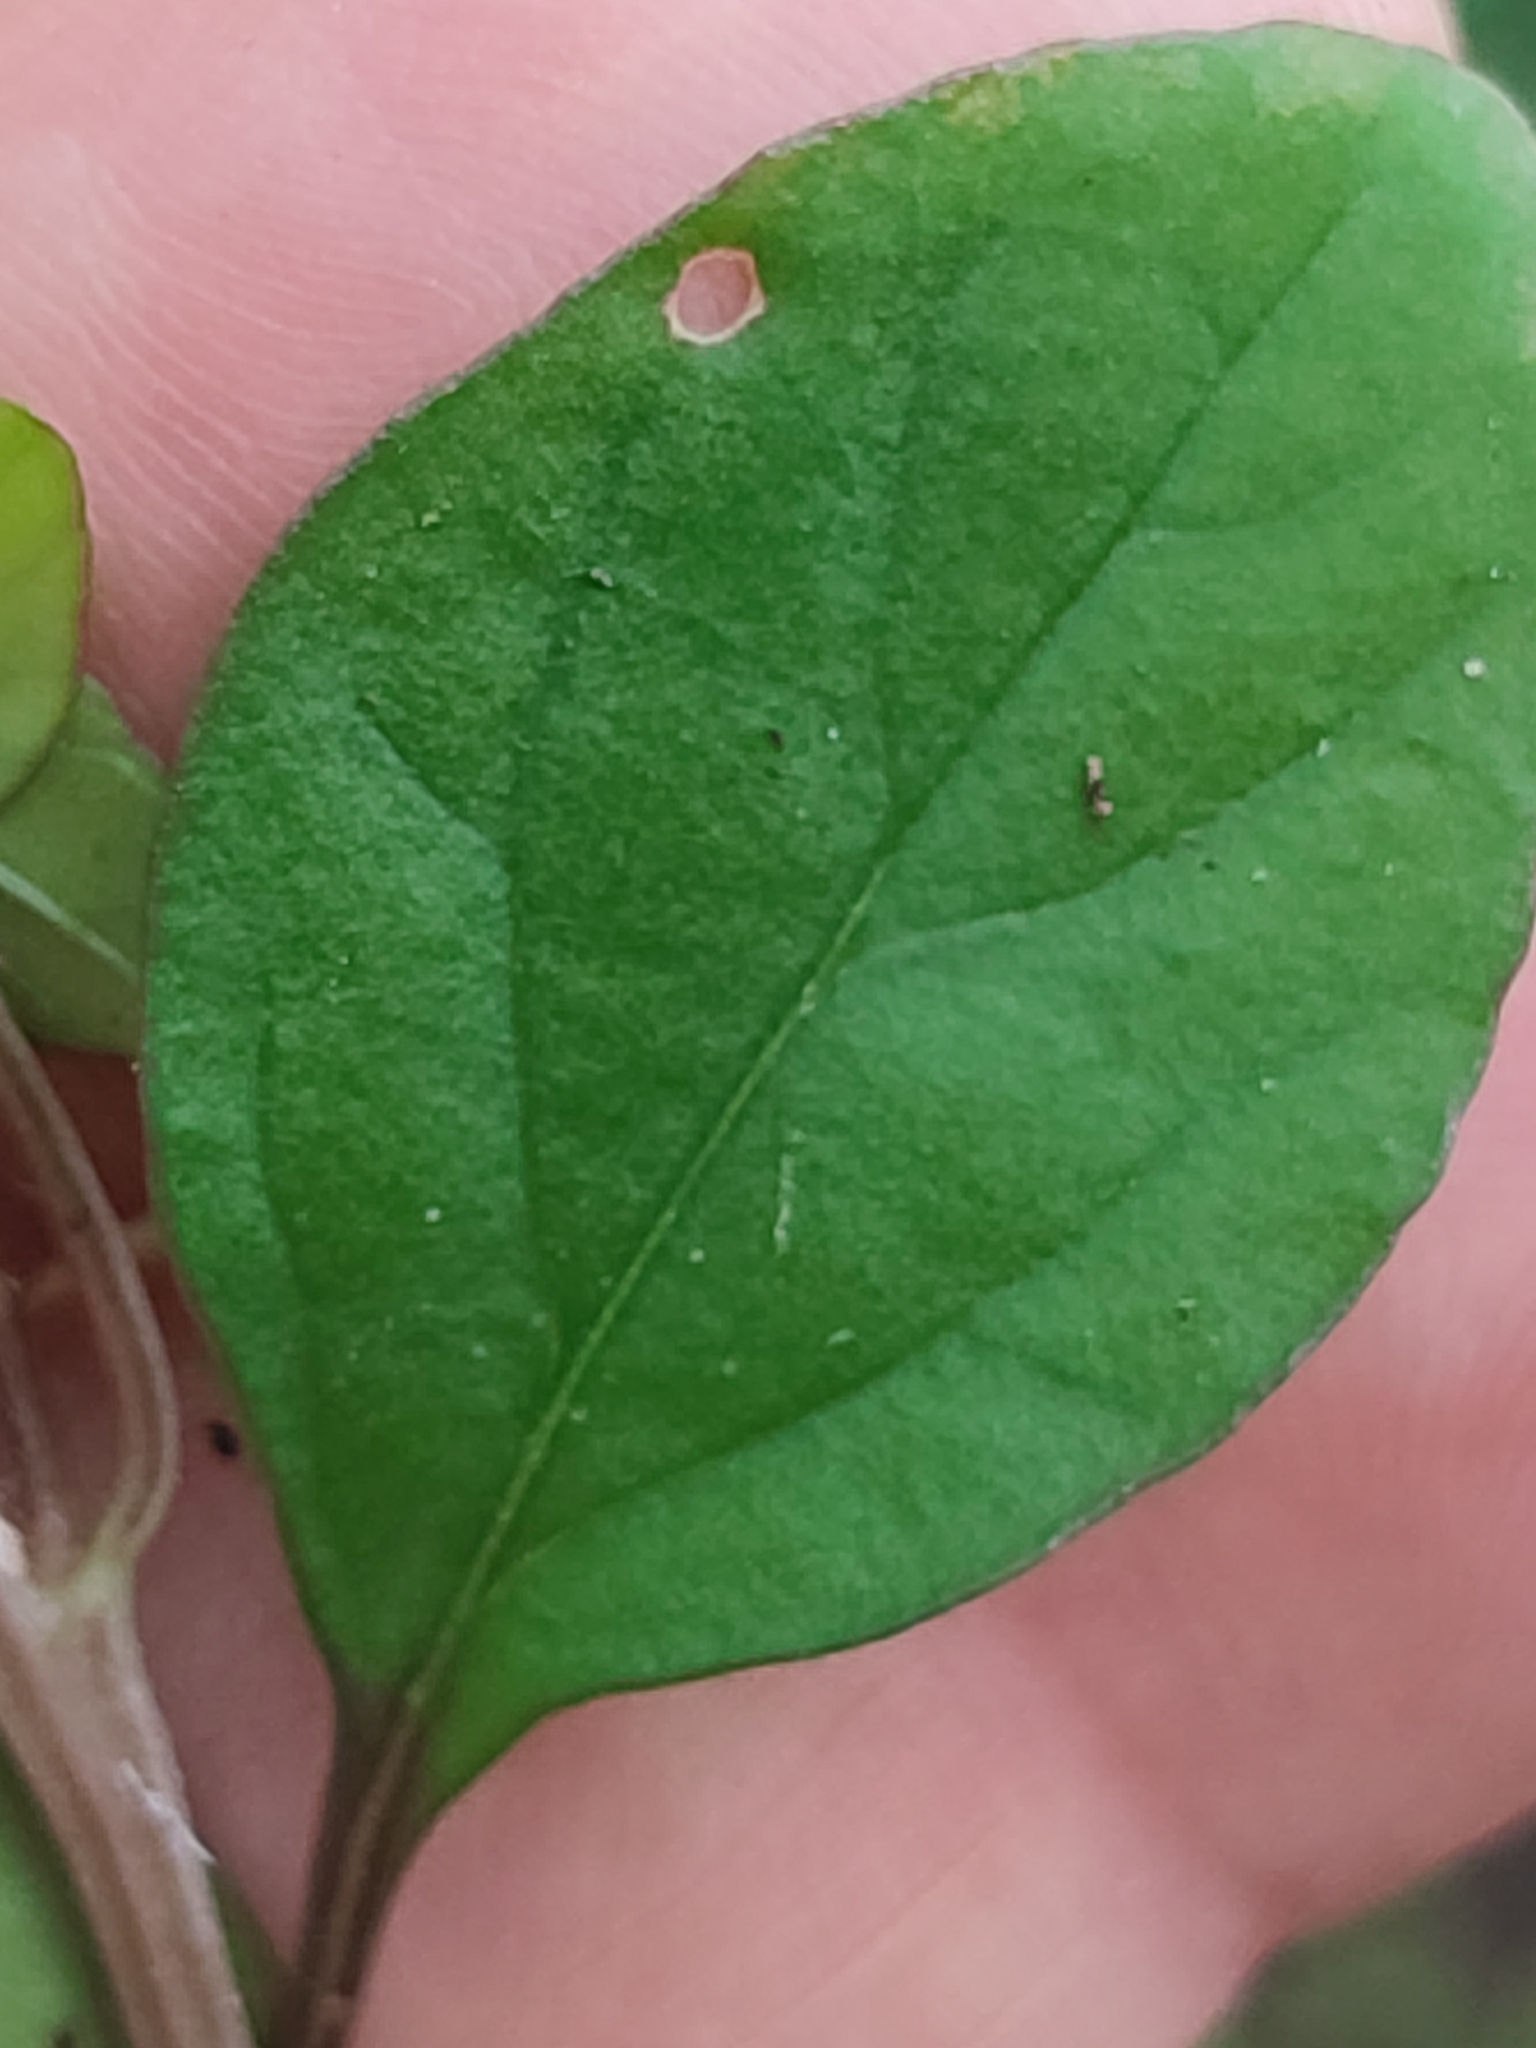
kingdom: Plantae
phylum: Tracheophyta
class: Magnoliopsida
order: Caryophyllales
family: Amaranthaceae
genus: Lagrezia
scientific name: Lagrezia micrantha
